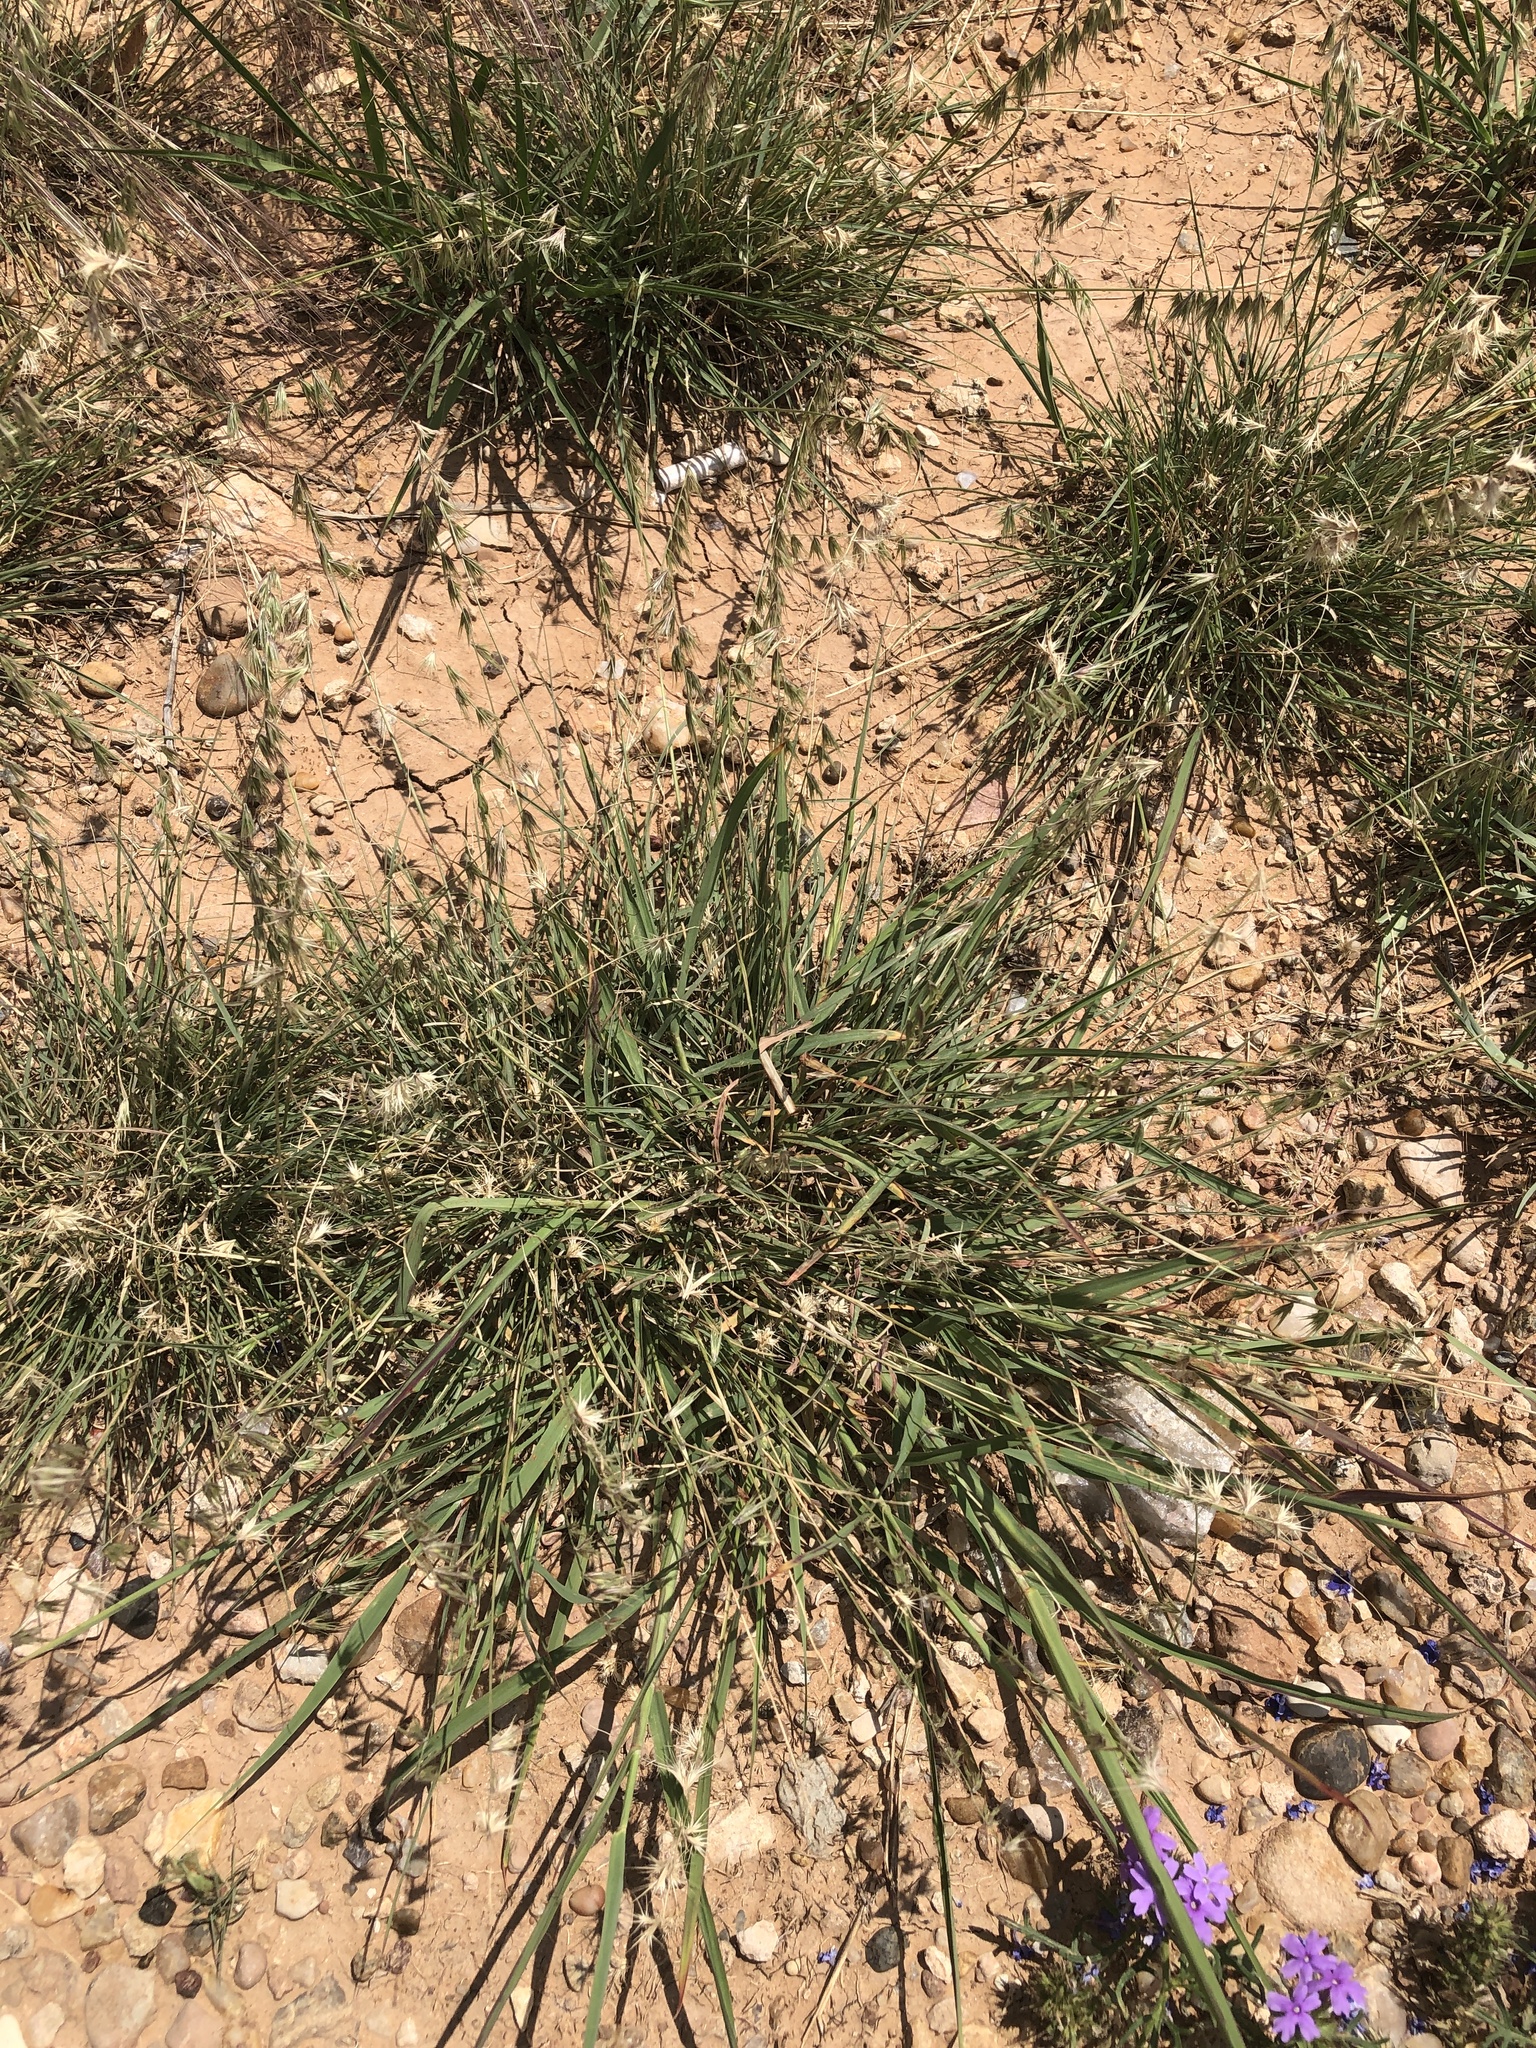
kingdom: Plantae
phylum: Tracheophyta
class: Liliopsida
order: Poales
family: Poaceae
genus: Bouteloua
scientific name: Bouteloua rigidiseta
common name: Texas grama
